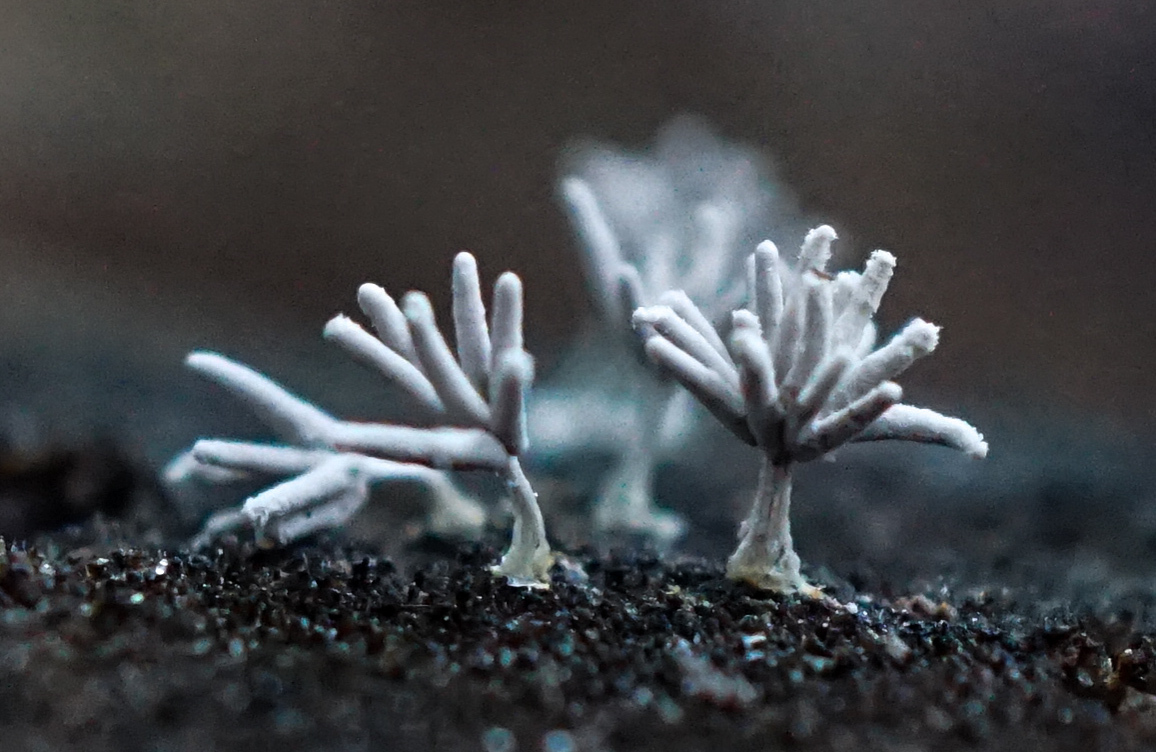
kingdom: Protozoa
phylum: Mycetozoa
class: Myxomycetes
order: Trichiales
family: Arcyriaceae
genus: Arcyria
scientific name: Arcyria cinerea
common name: White carnival candy slime mold
